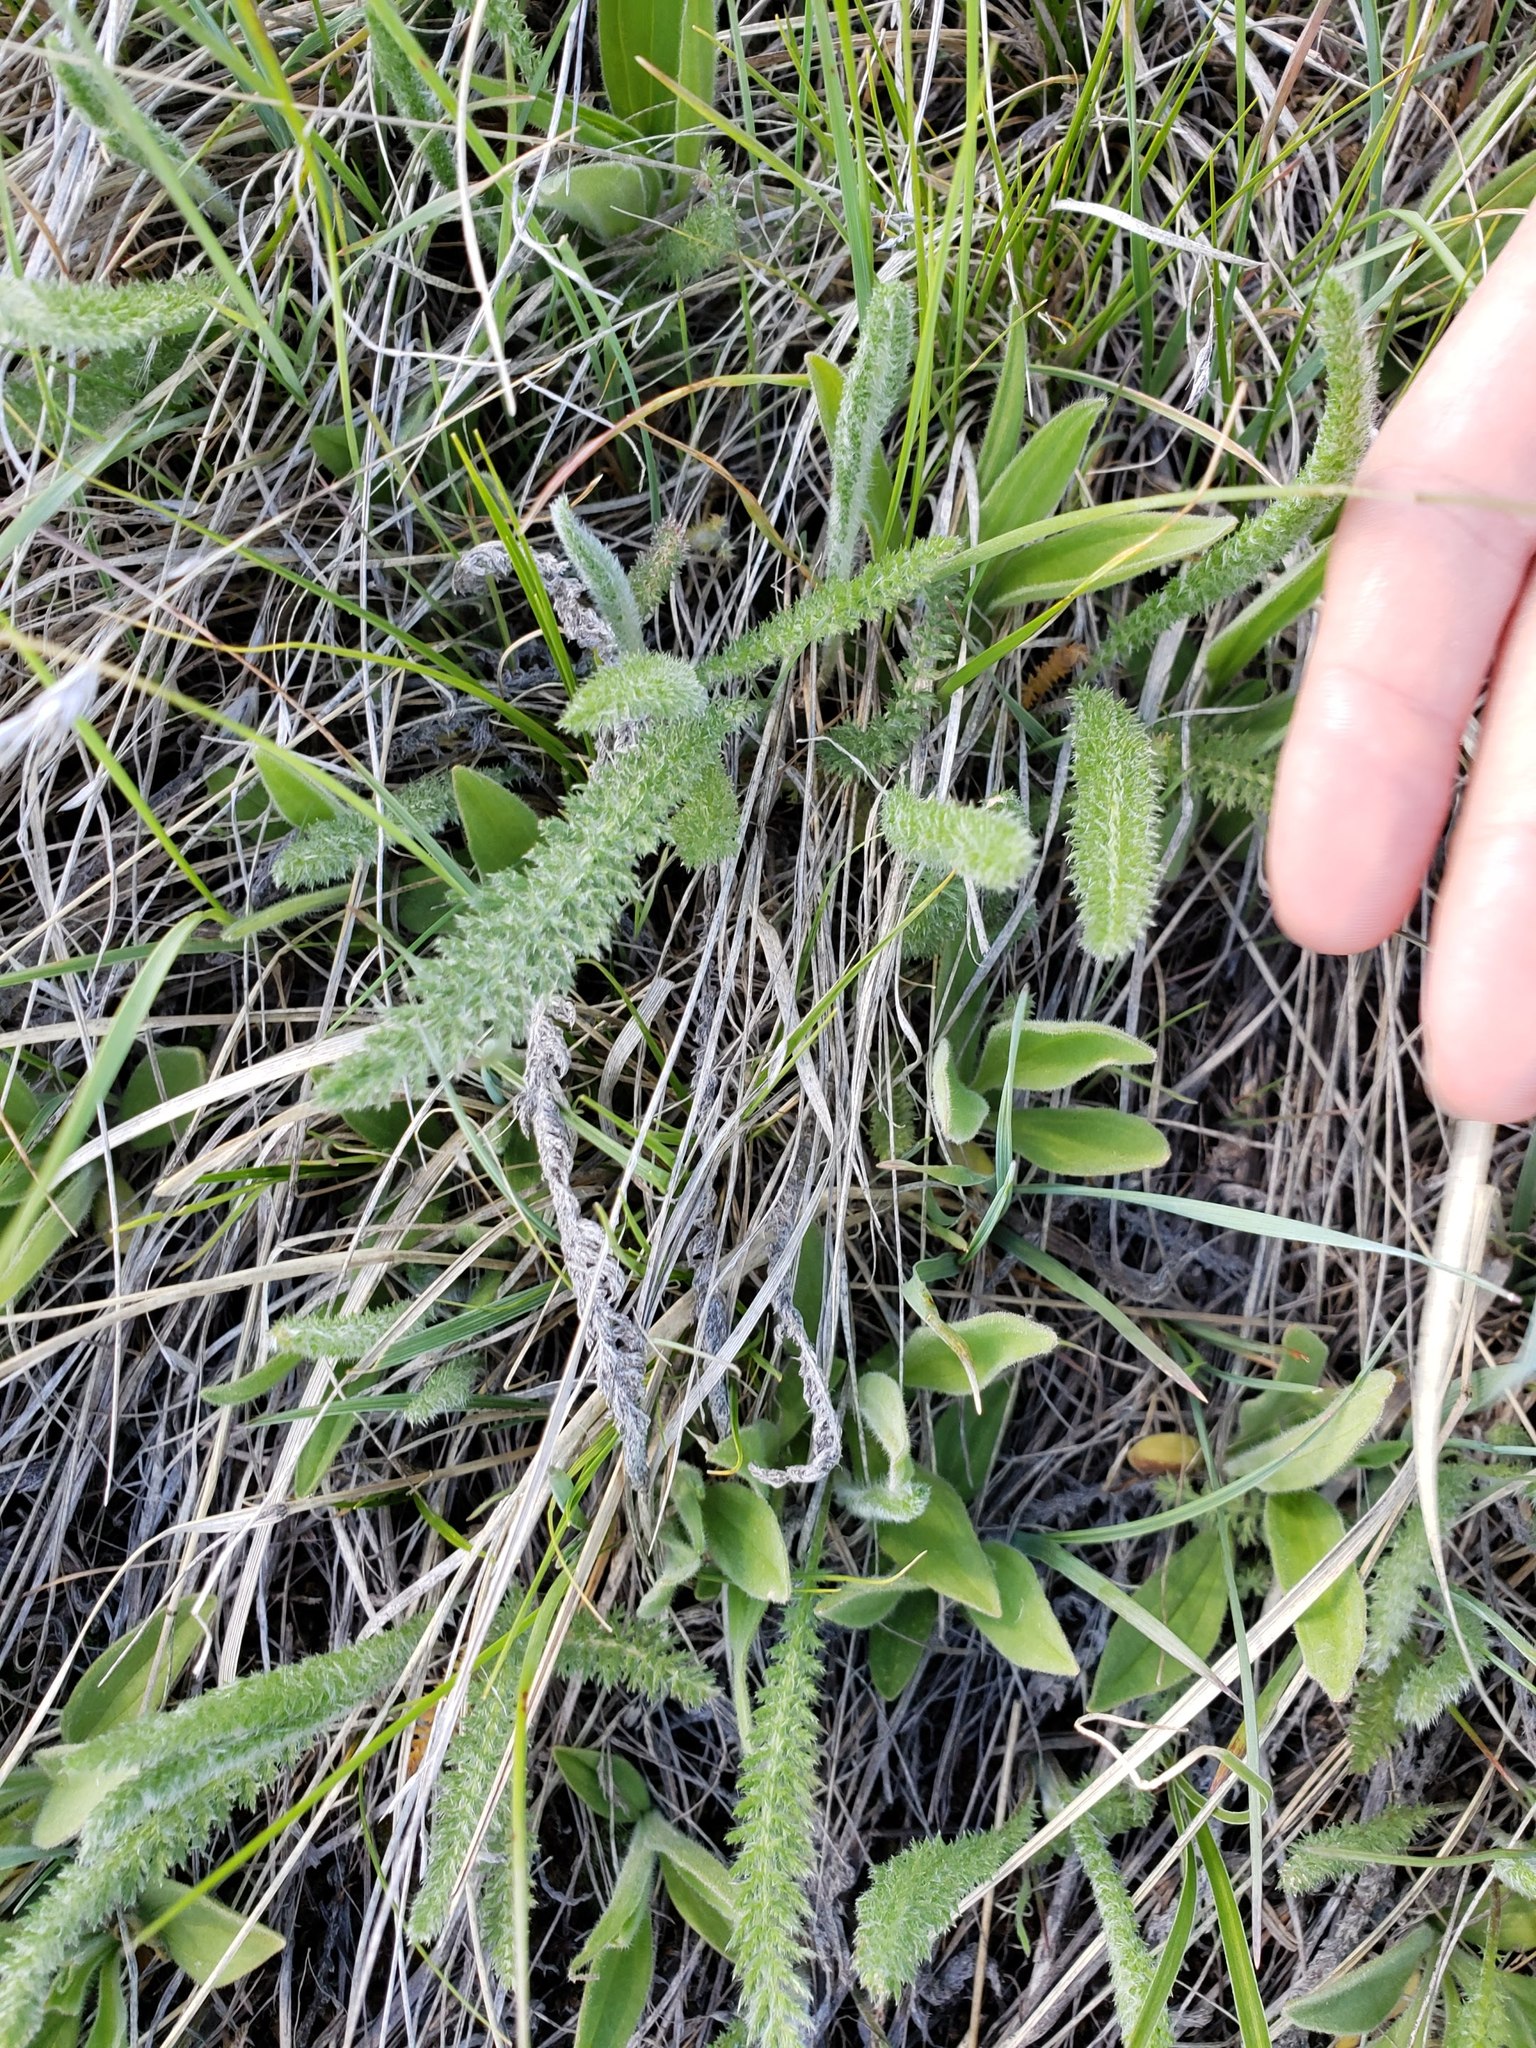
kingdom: Plantae
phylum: Tracheophyta
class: Magnoliopsida
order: Asterales
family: Asteraceae
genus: Achillea
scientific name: Achillea millefolium
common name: Yarrow
